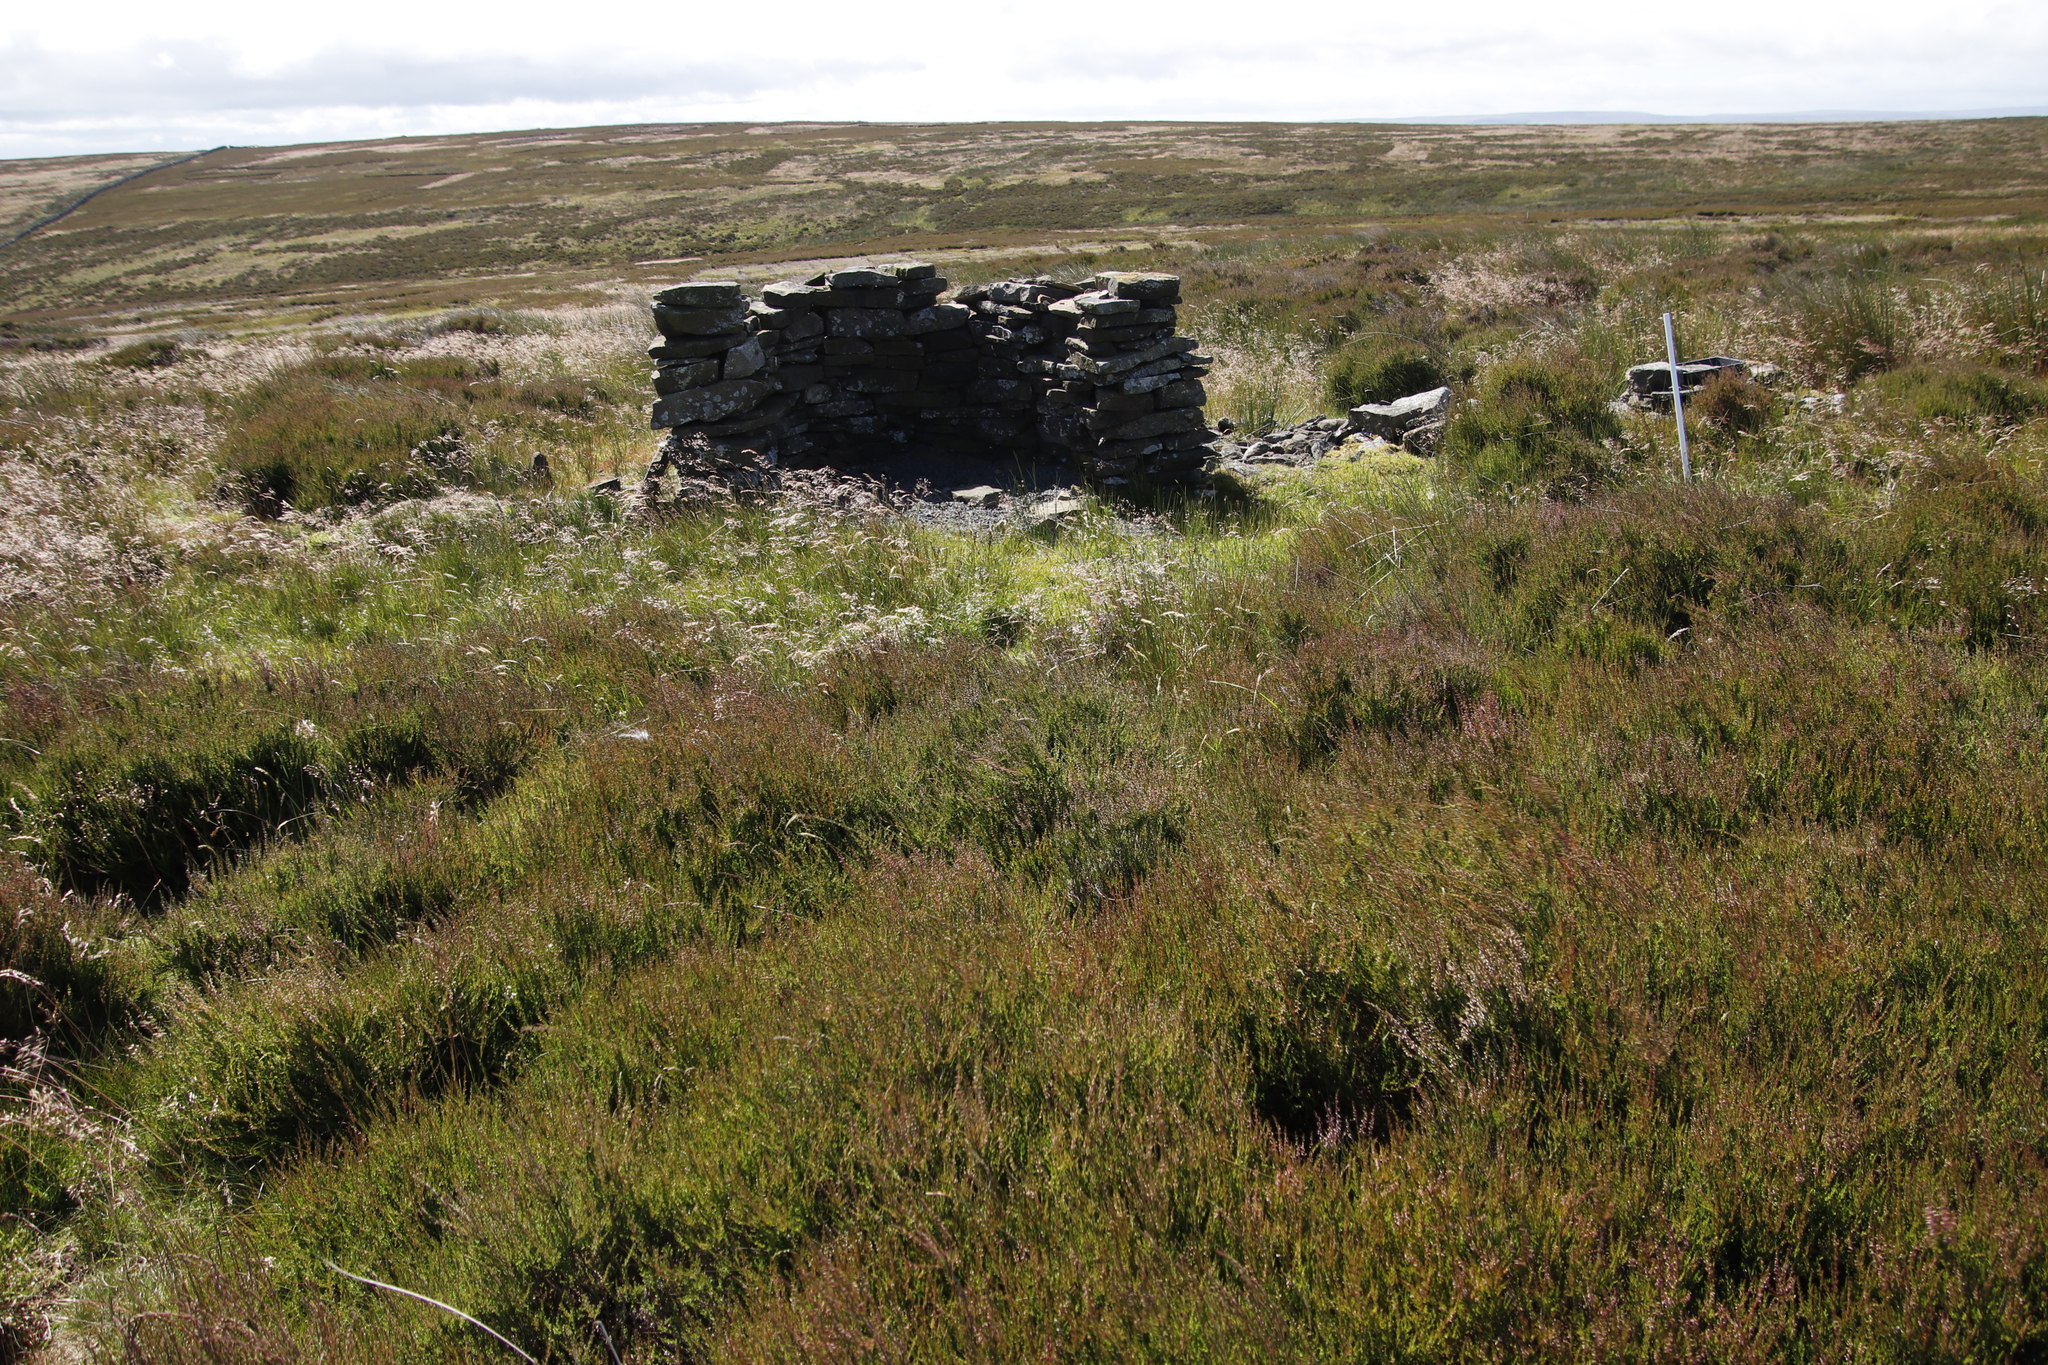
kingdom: Plantae
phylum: Tracheophyta
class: Magnoliopsida
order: Ericales
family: Ericaceae
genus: Calluna
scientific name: Calluna vulgaris
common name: Heather
